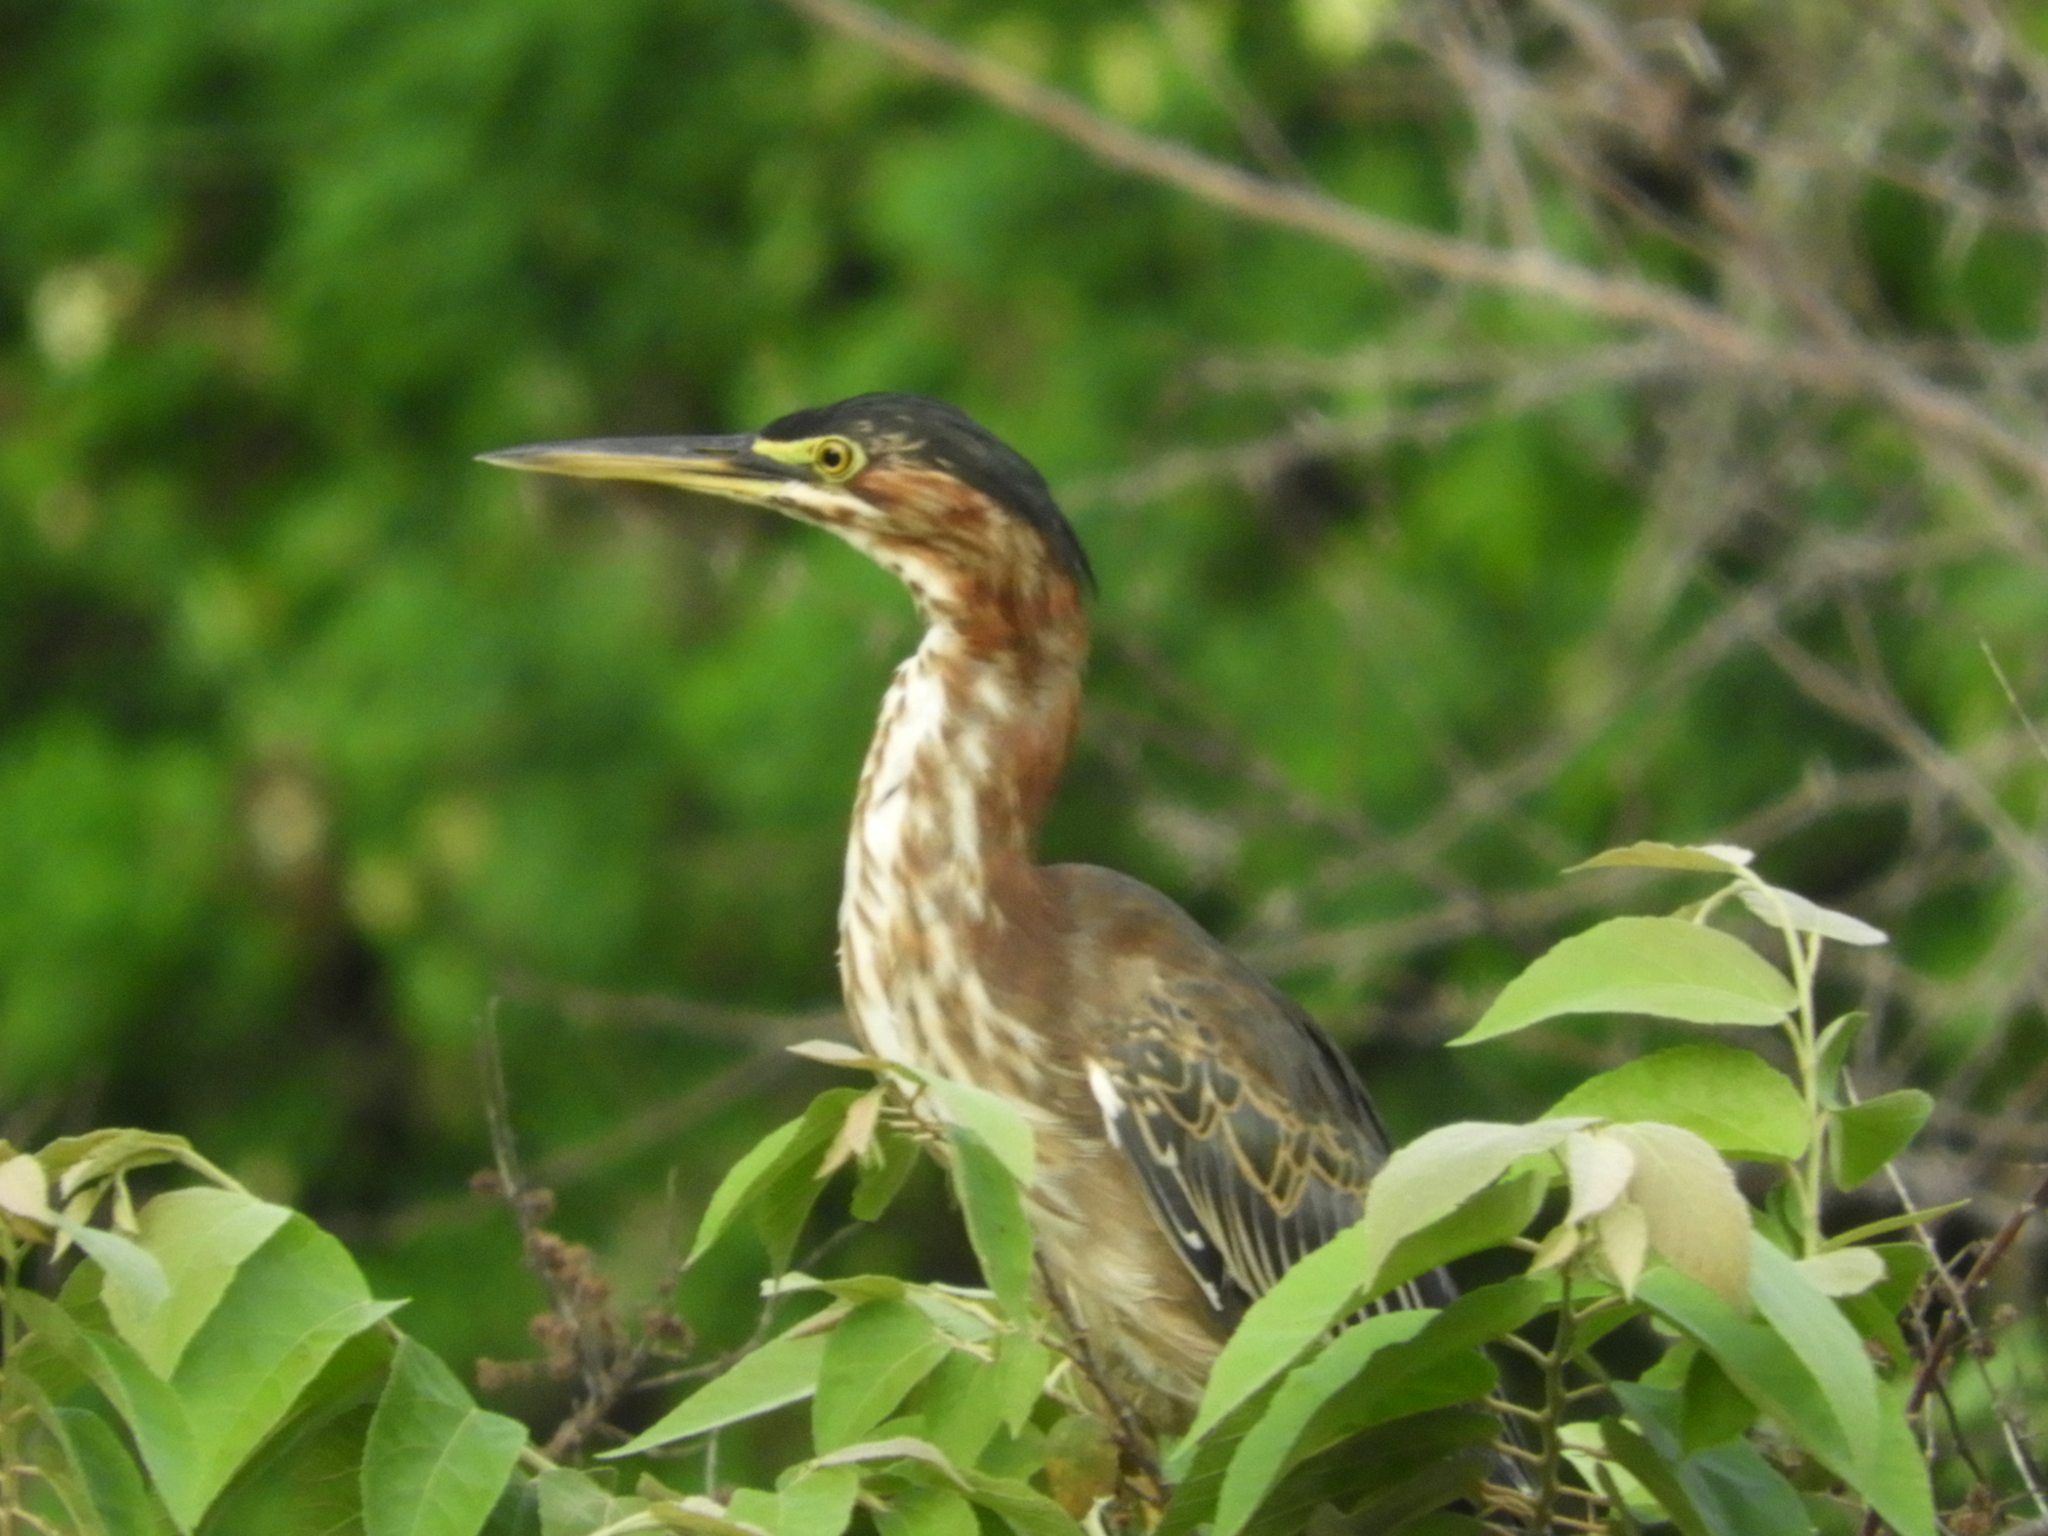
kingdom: Animalia
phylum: Chordata
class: Aves
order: Pelecaniformes
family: Ardeidae
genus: Butorides
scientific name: Butorides virescens
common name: Green heron
